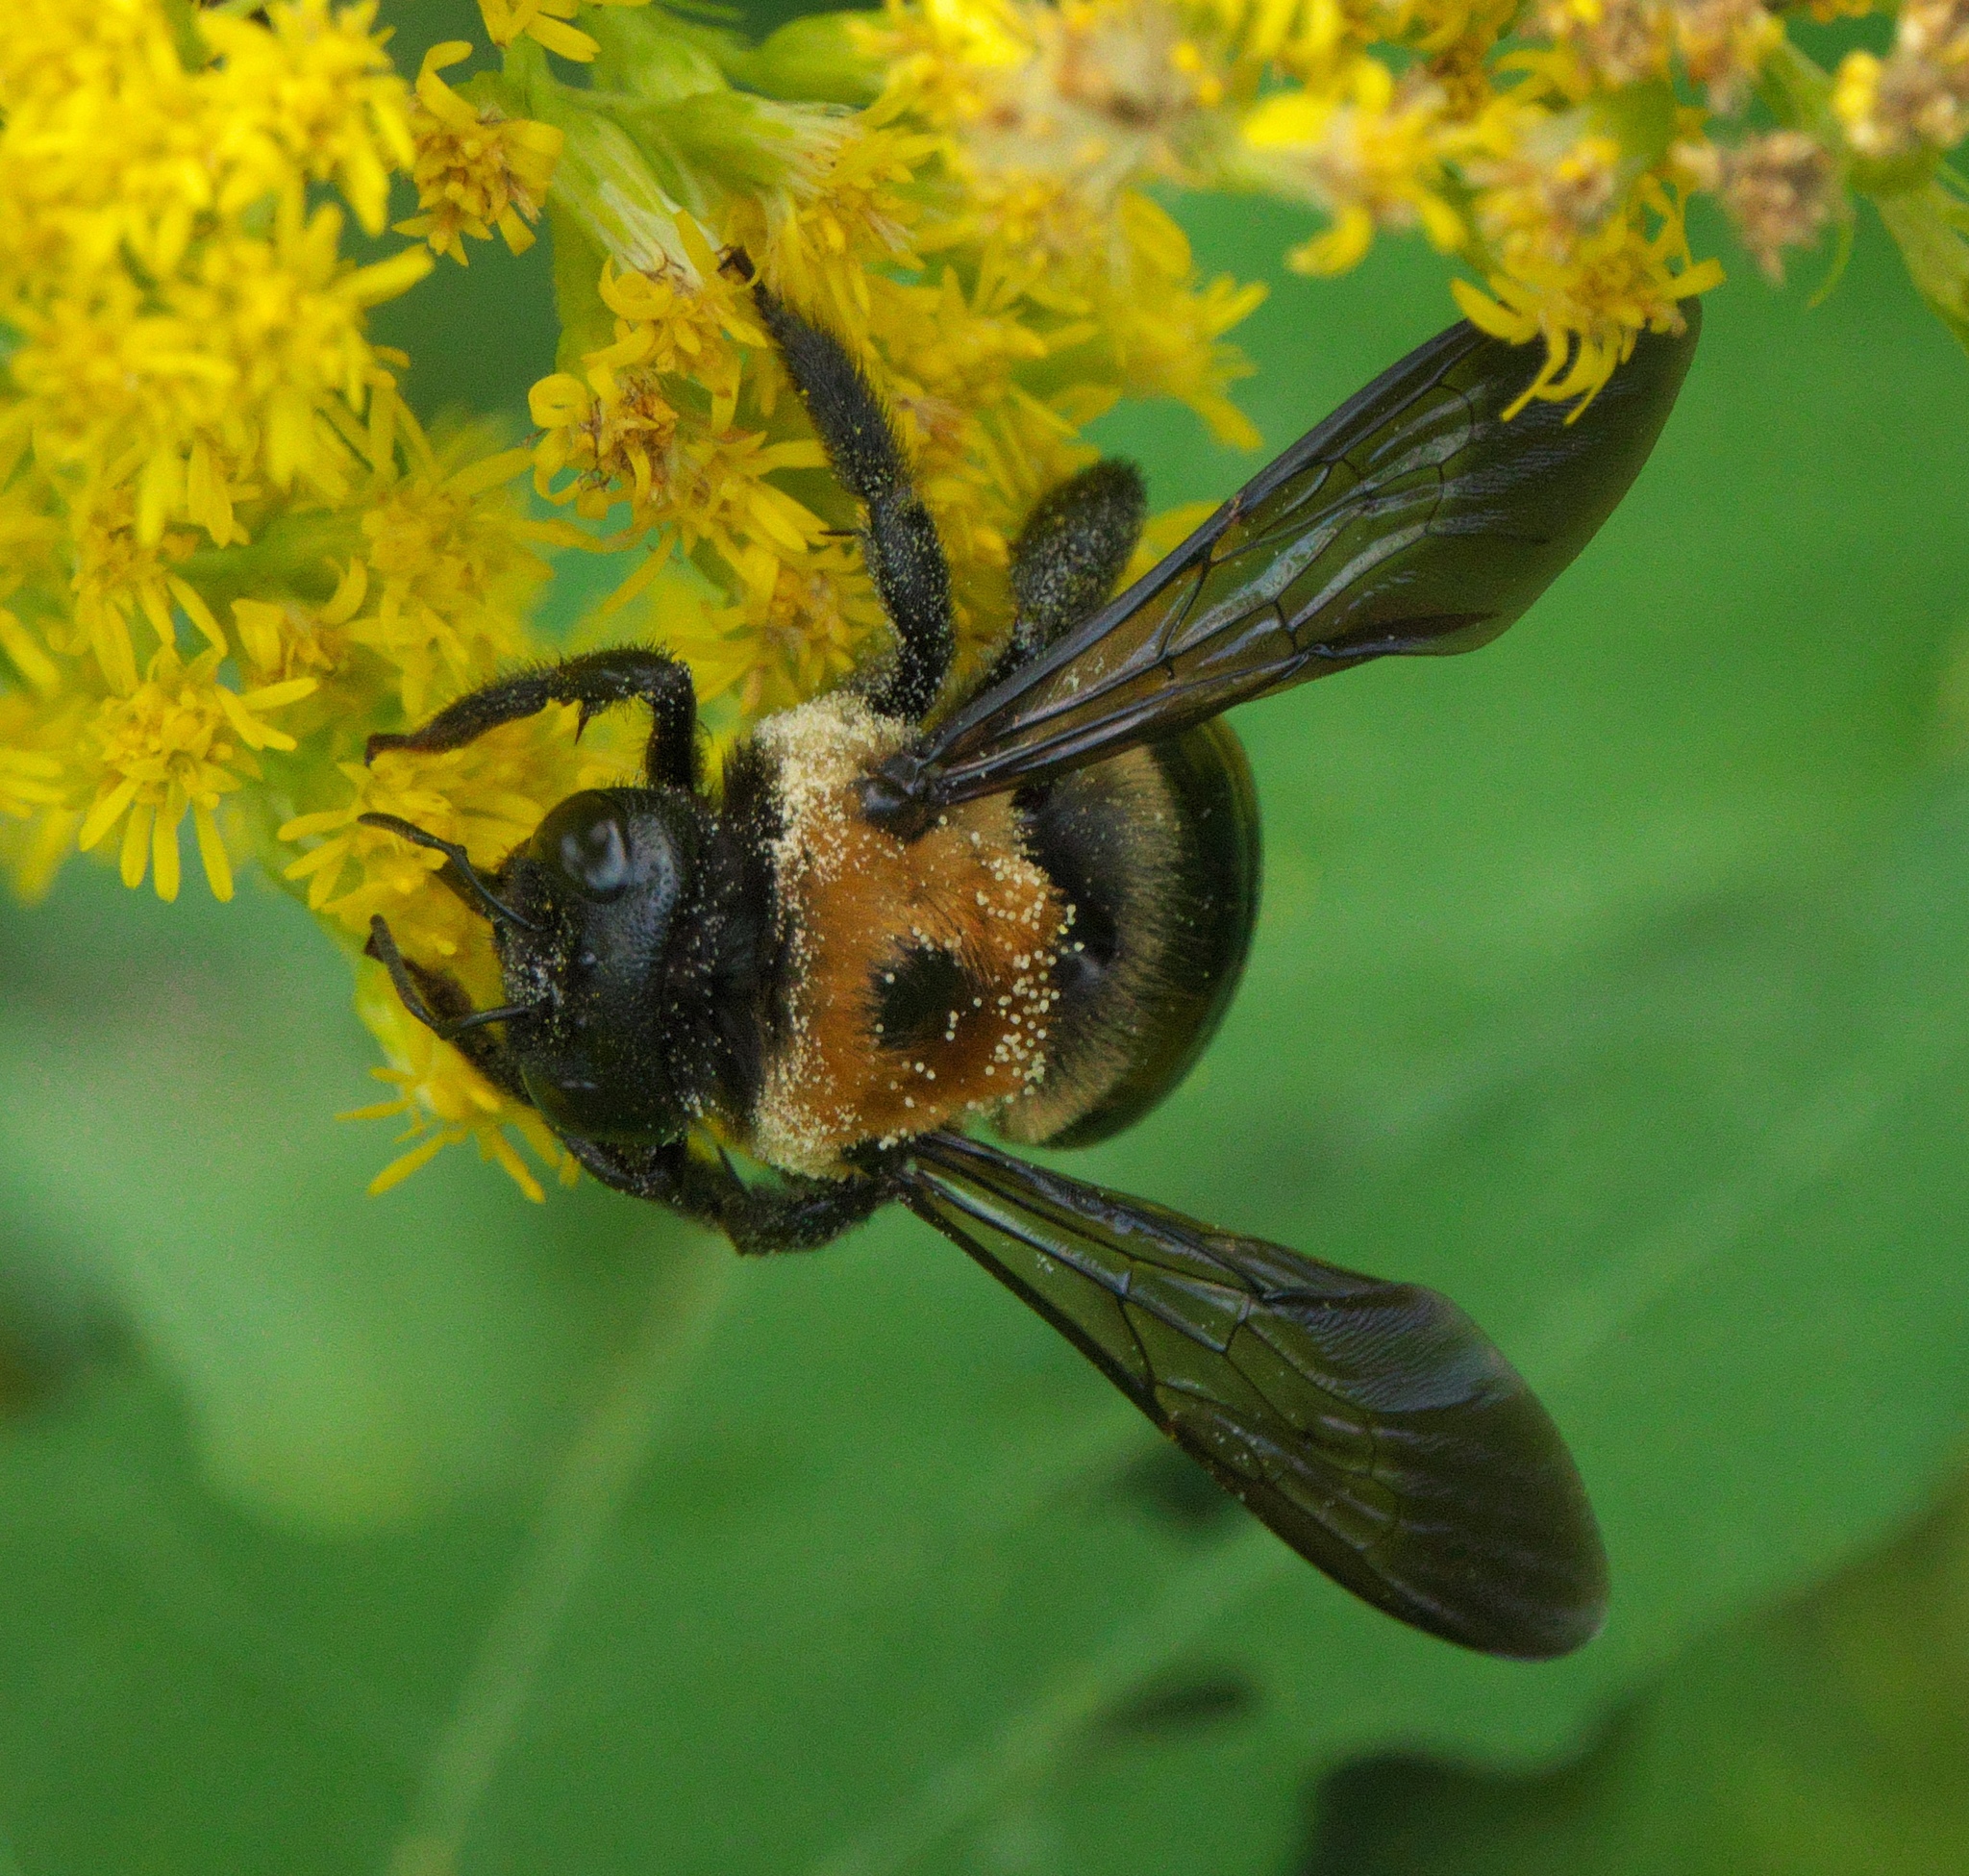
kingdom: Animalia
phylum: Arthropoda
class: Insecta
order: Hymenoptera
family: Apidae
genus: Xylocopa
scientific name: Xylocopa virginica
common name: Carpenter bee
